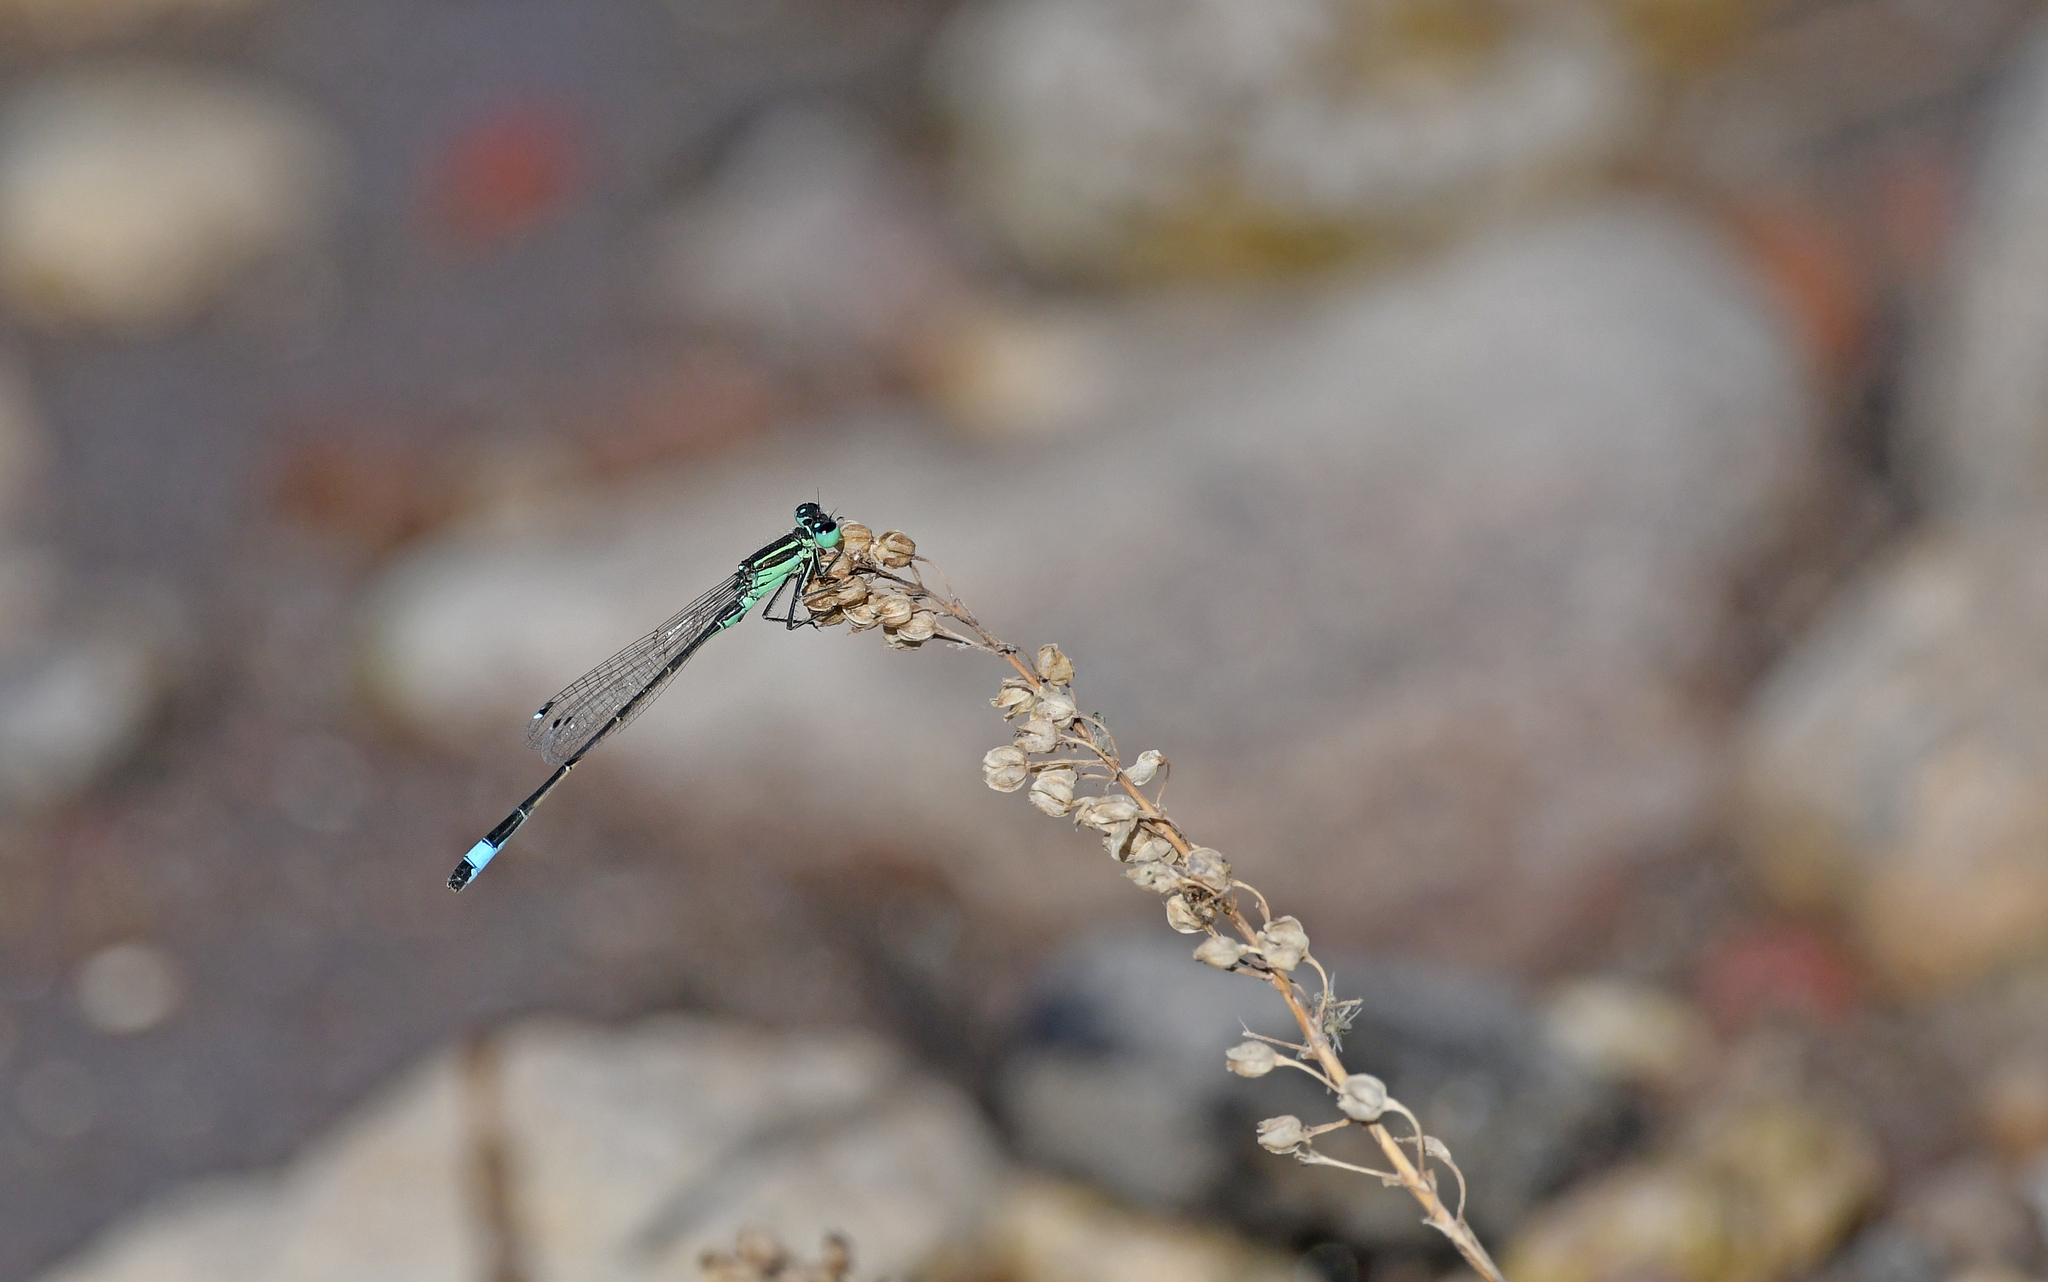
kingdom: Animalia
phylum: Arthropoda
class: Insecta
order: Odonata
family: Coenagrionidae
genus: Ischnura
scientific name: Ischnura genei
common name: Island bluetail
